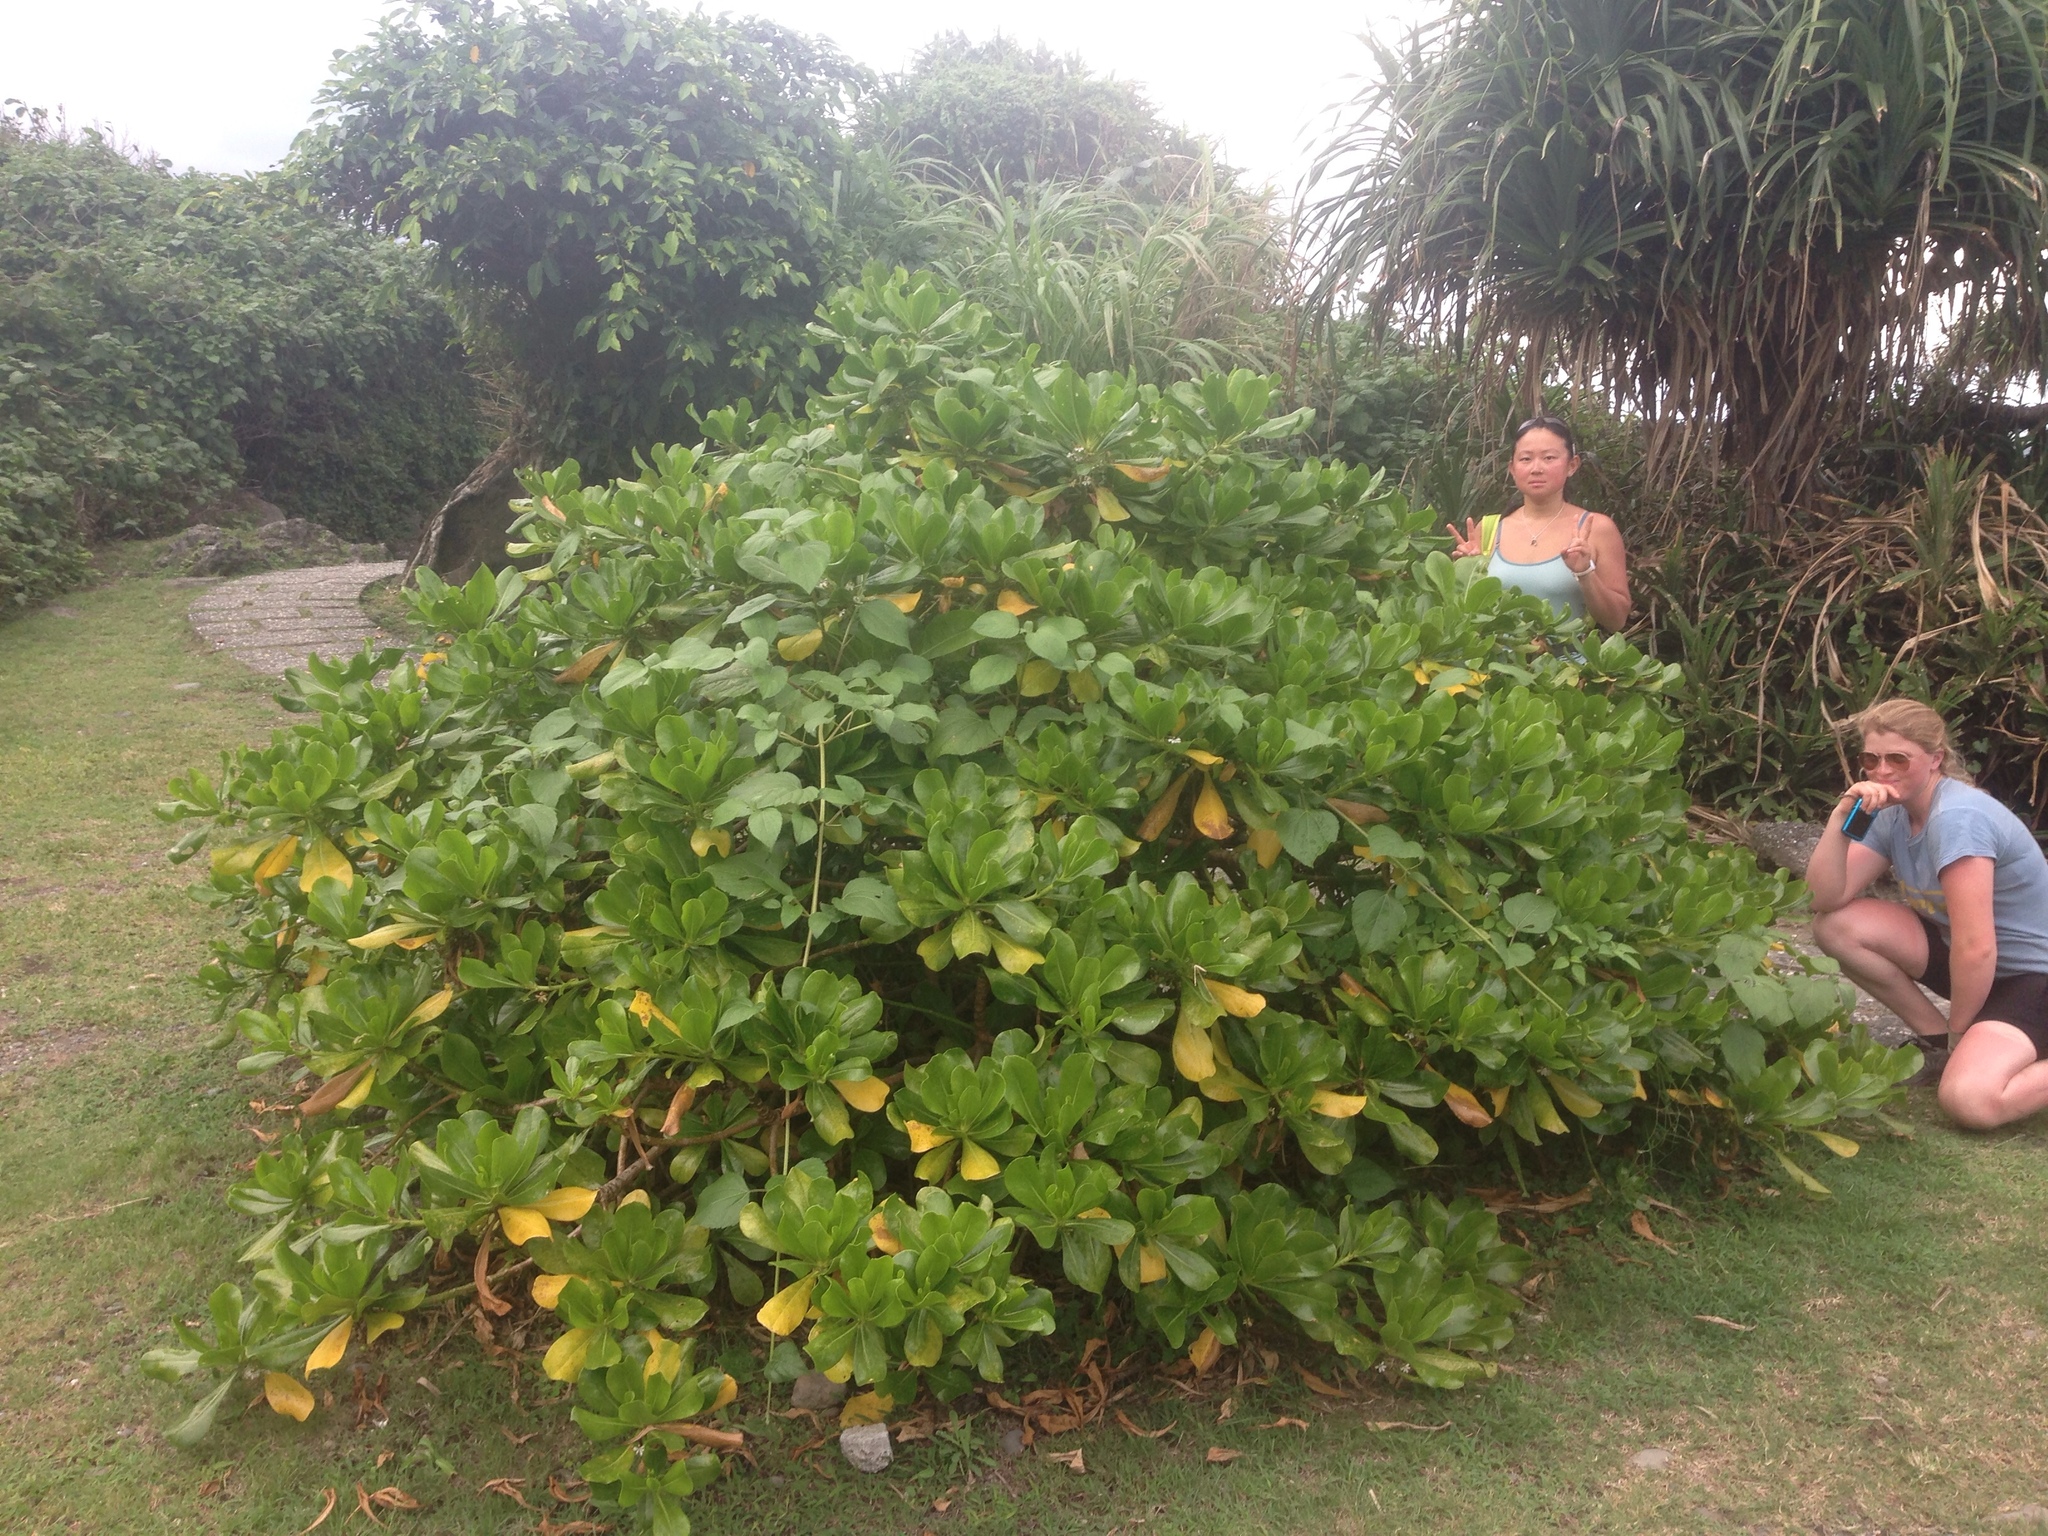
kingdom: Plantae
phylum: Tracheophyta
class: Magnoliopsida
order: Asterales
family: Goodeniaceae
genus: Scaevola
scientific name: Scaevola taccada
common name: Sea lettucetree
